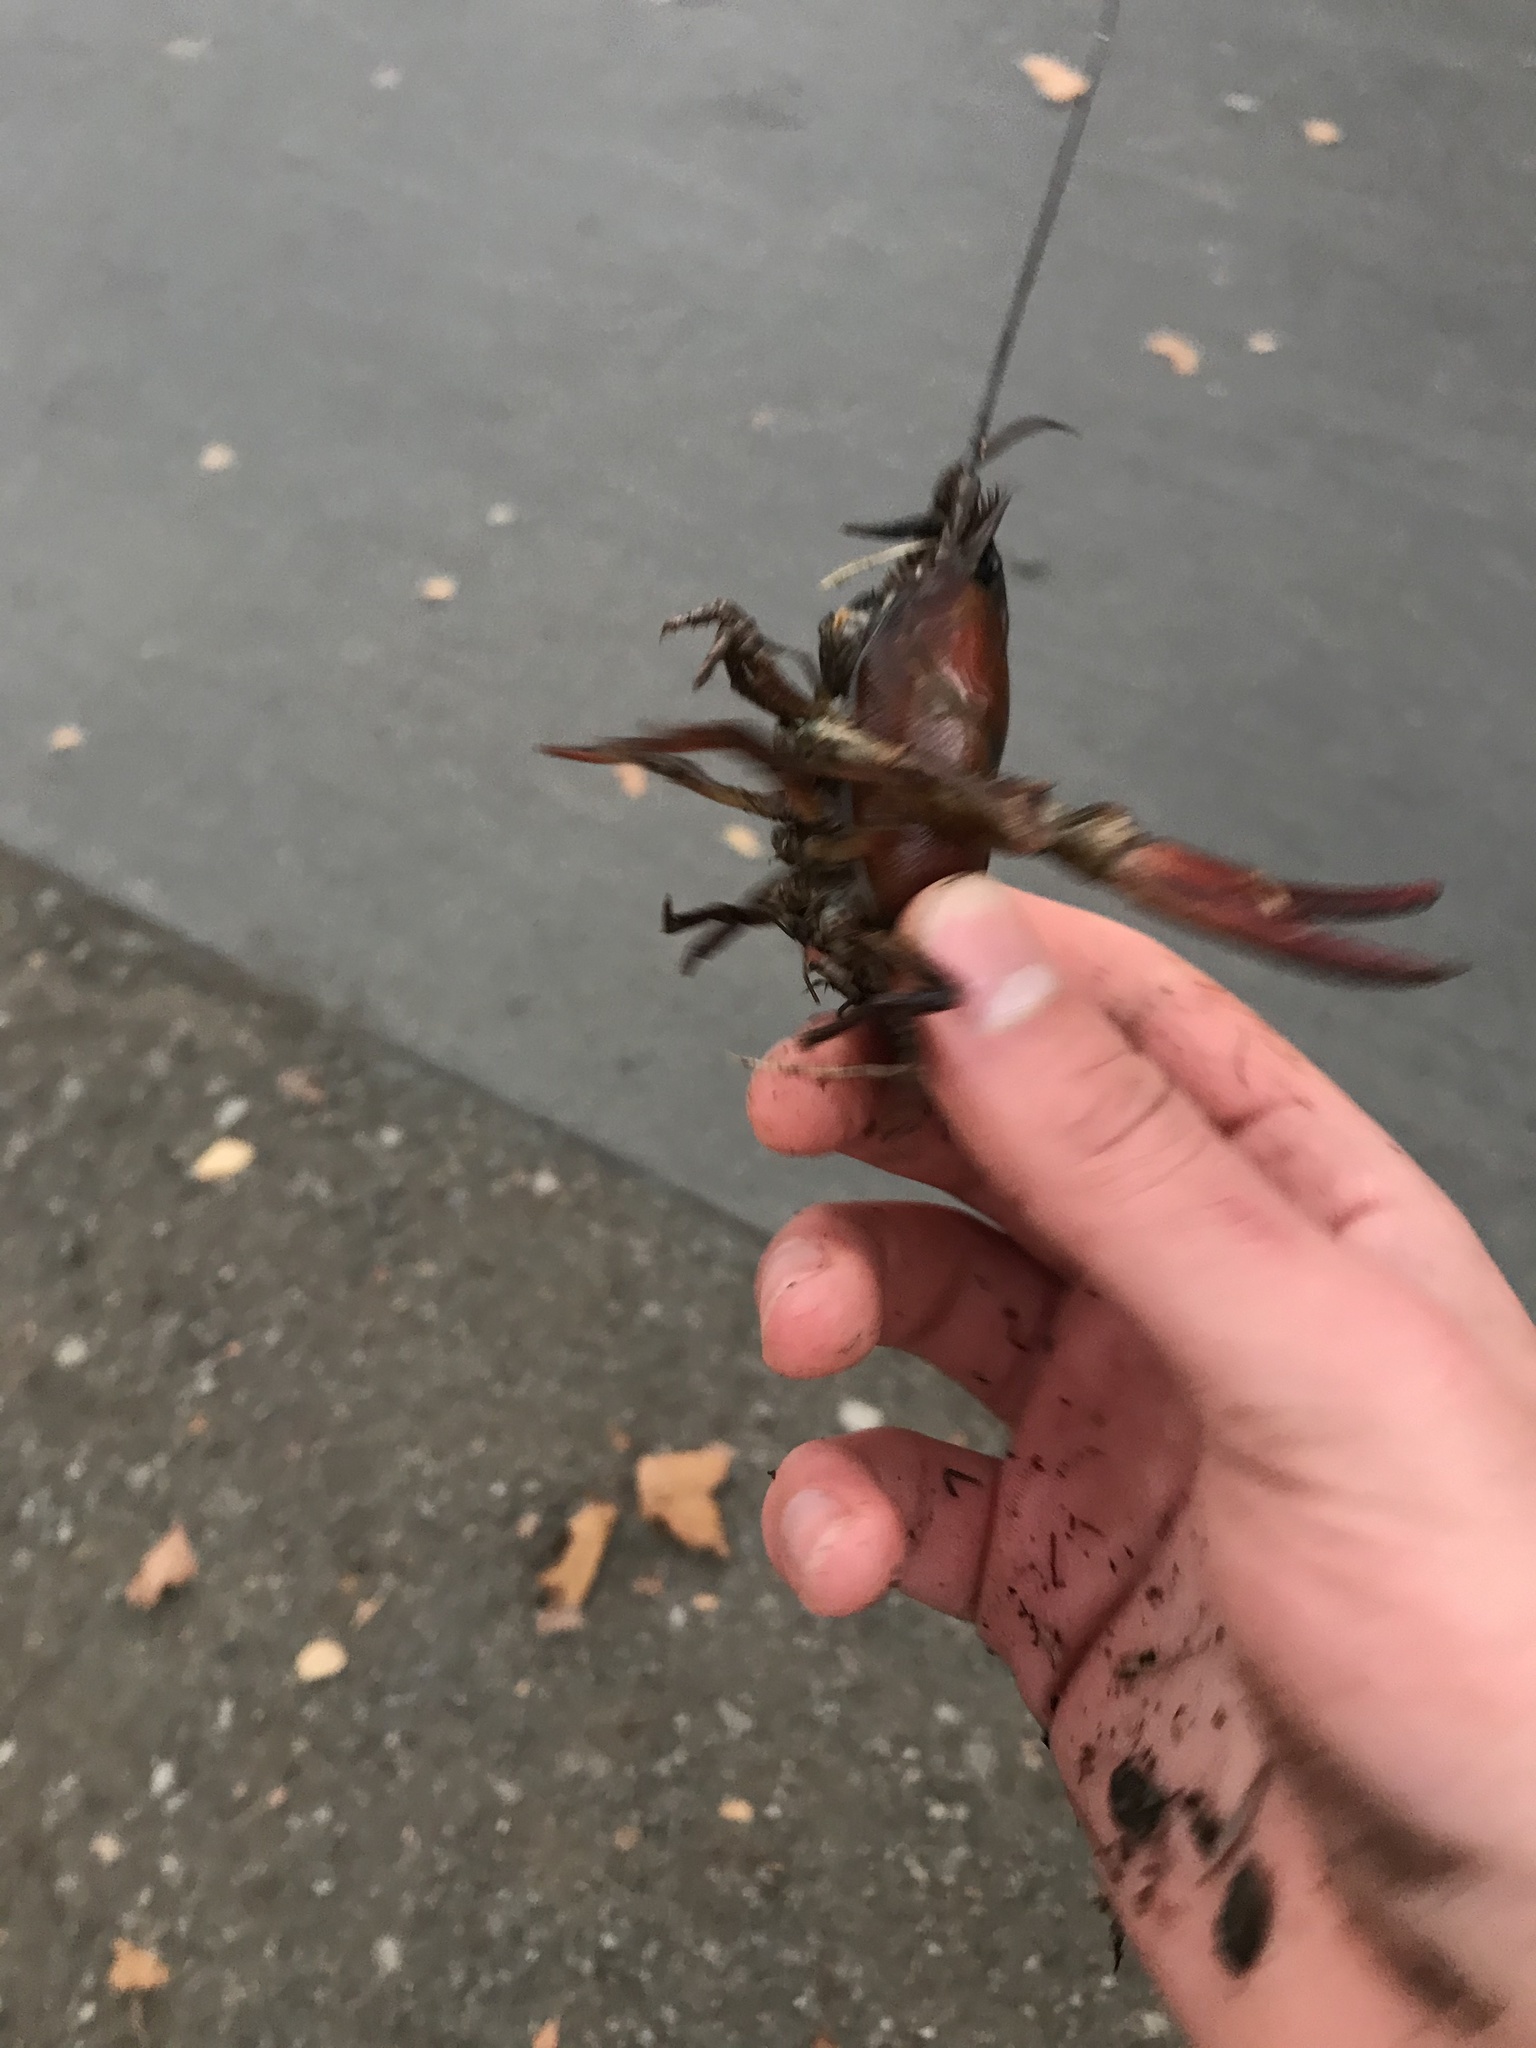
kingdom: Animalia
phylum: Arthropoda
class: Malacostraca
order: Decapoda
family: Astacidae
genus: Pacifastacus
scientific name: Pacifastacus leniusculus
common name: Signal crayfish
